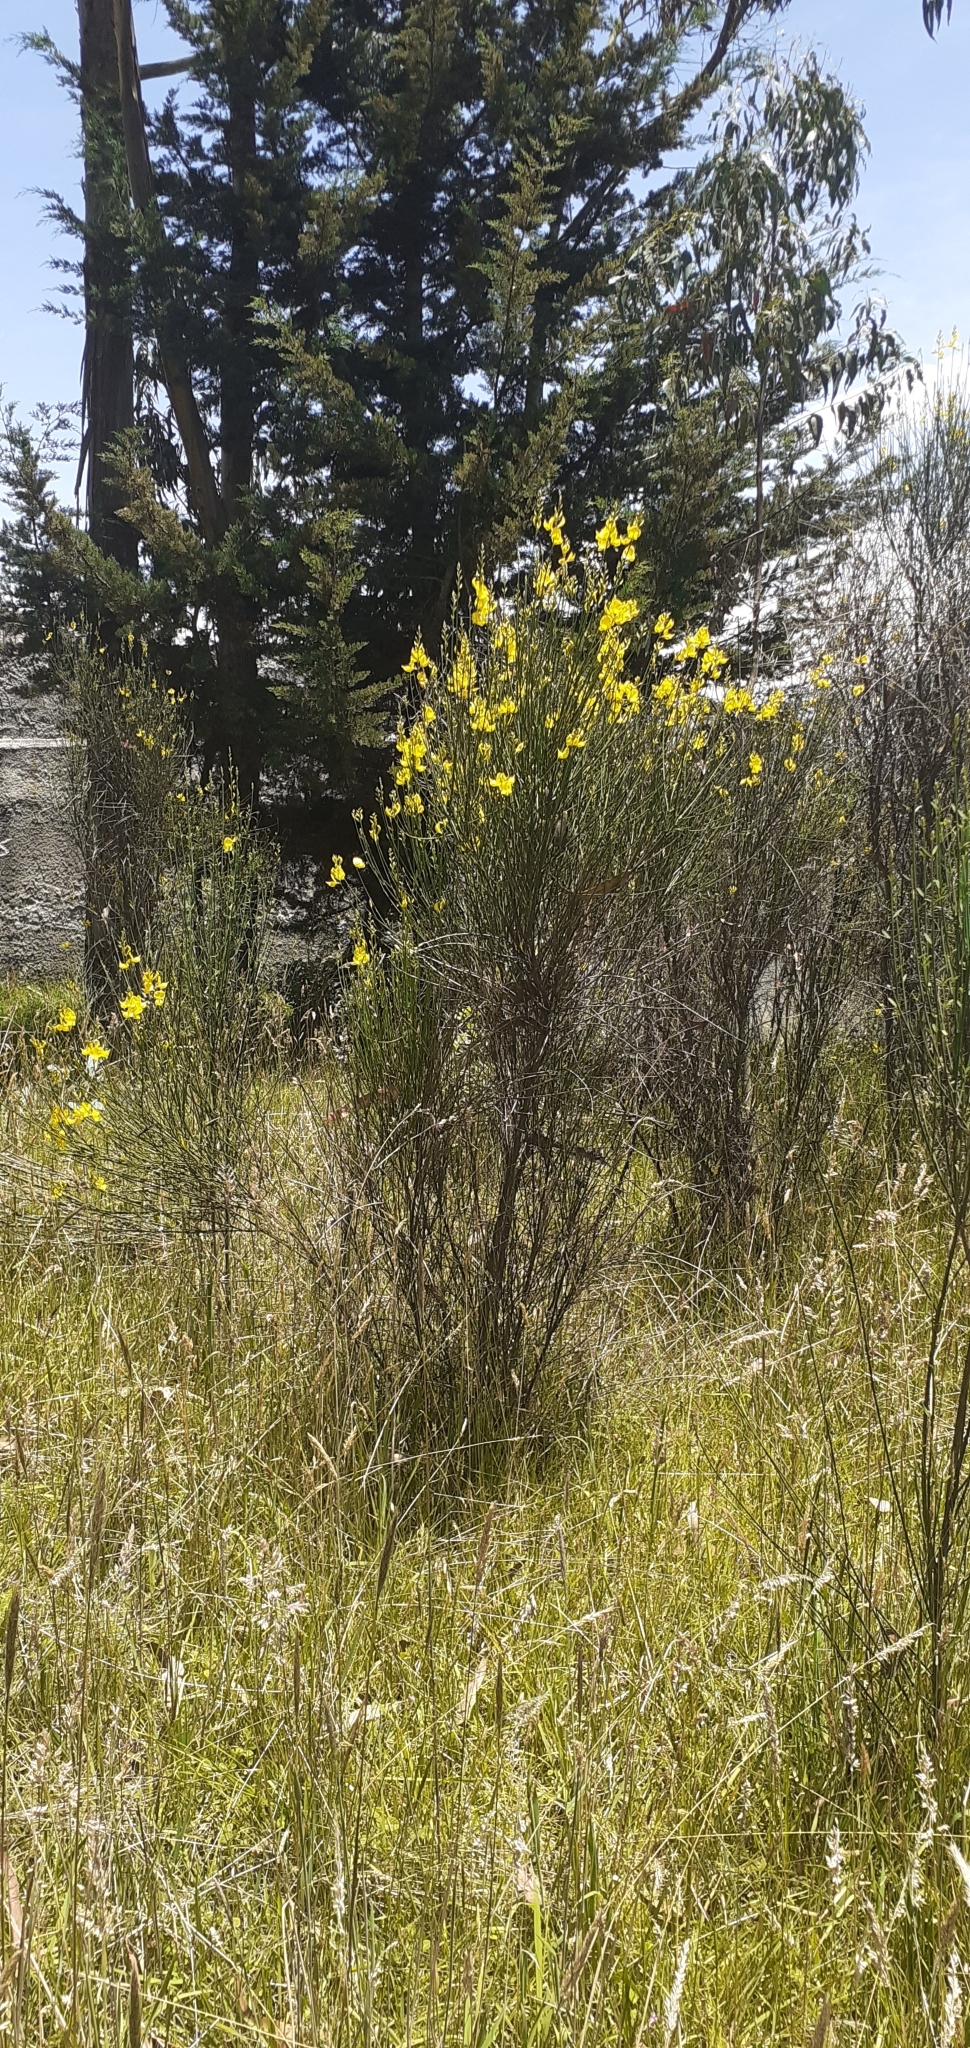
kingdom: Plantae
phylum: Tracheophyta
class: Magnoliopsida
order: Fabales
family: Fabaceae
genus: Spartium
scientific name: Spartium junceum
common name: Spanish broom
